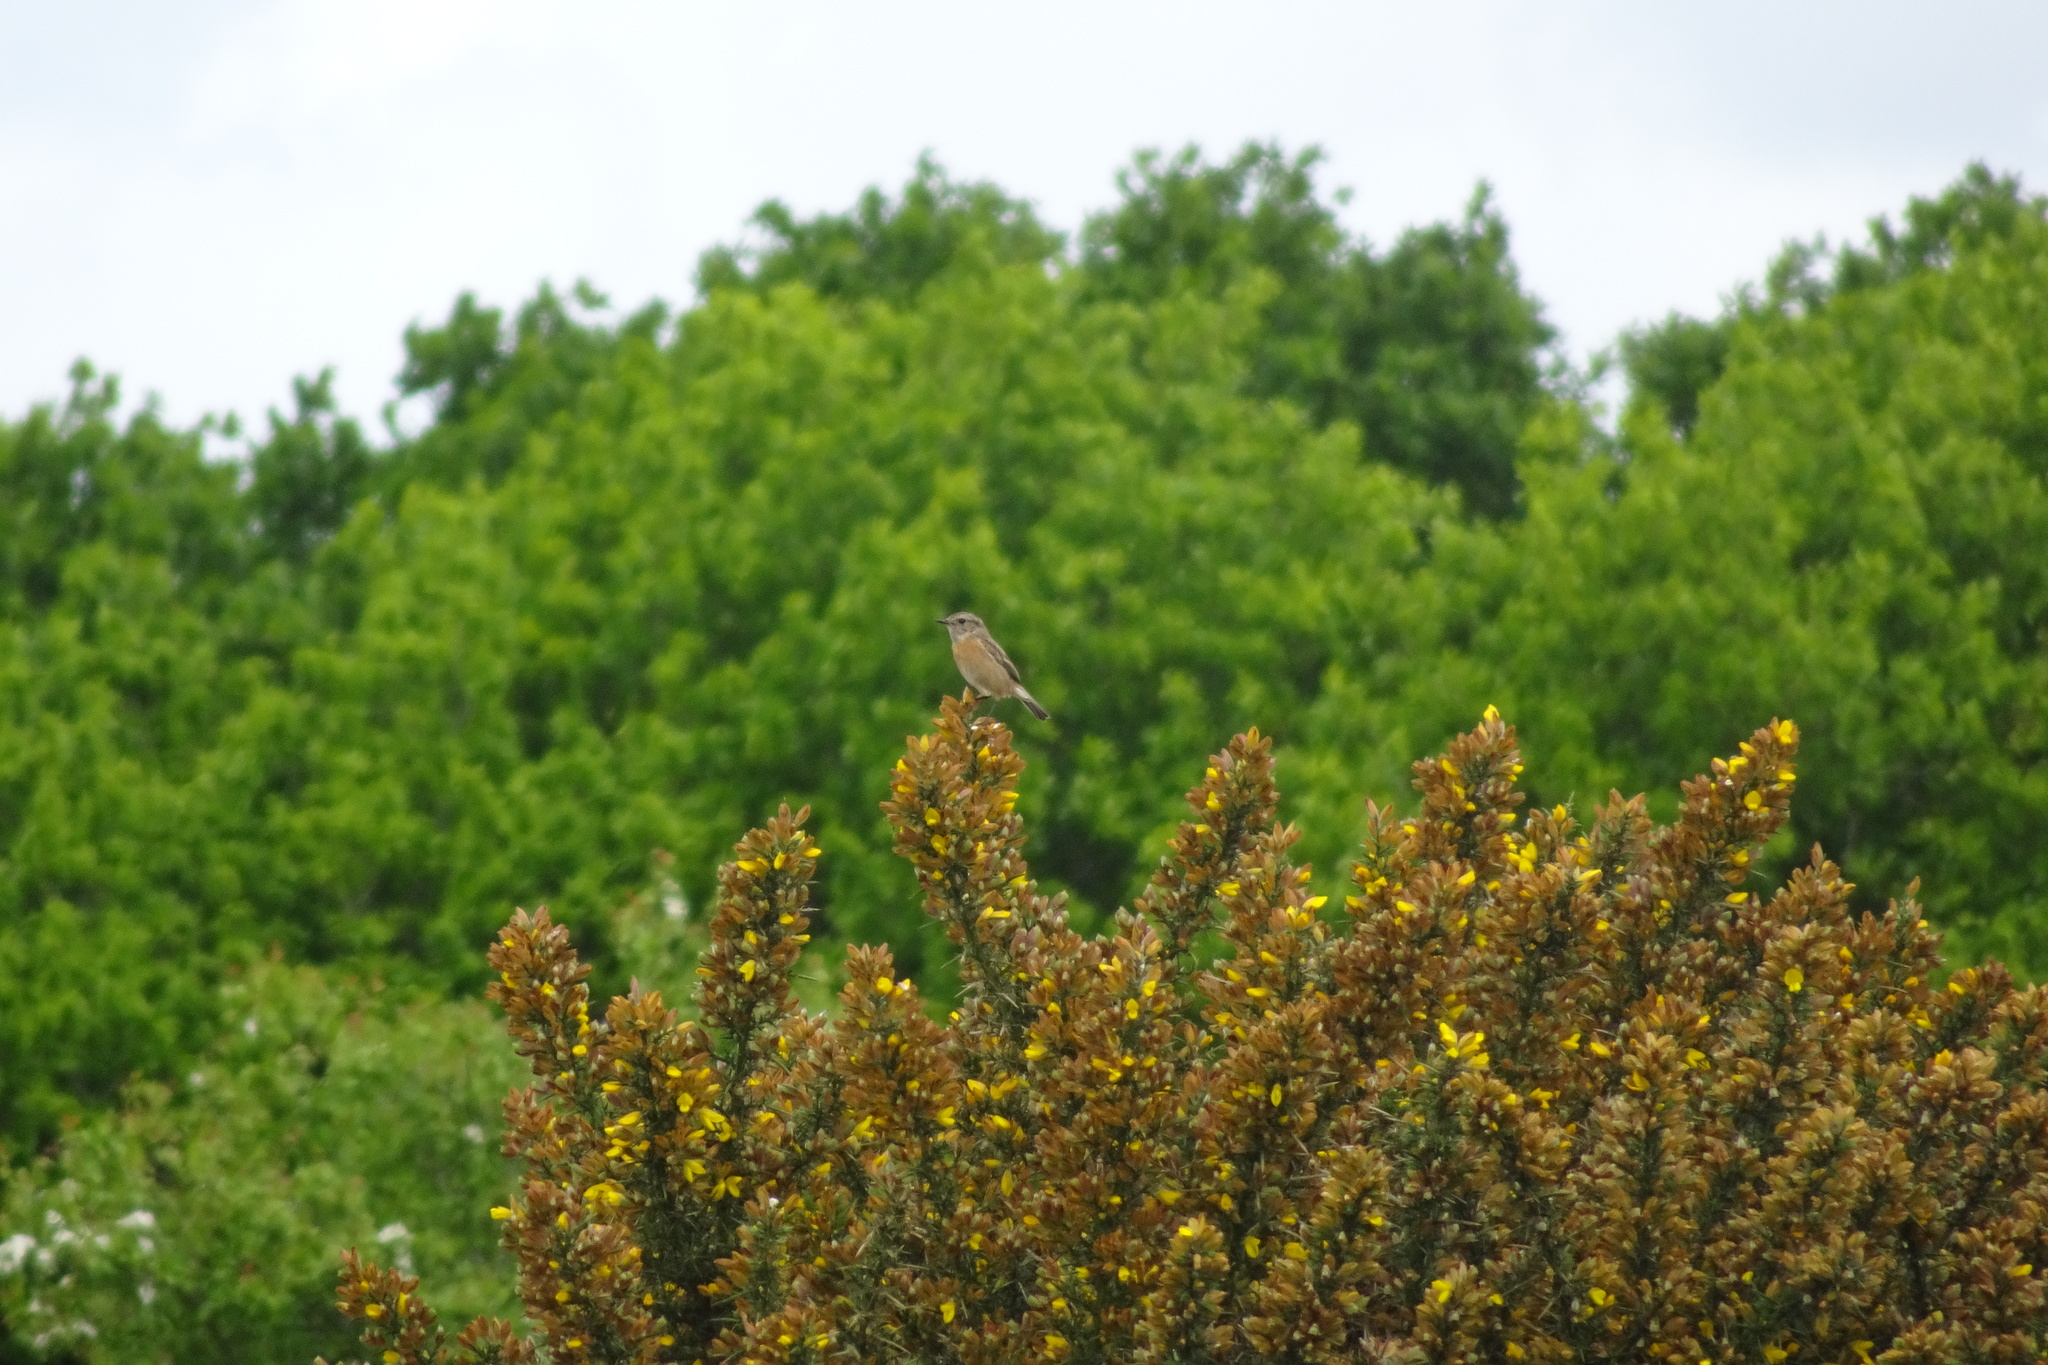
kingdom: Animalia
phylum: Chordata
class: Aves
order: Passeriformes
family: Muscicapidae
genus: Saxicola
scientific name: Saxicola rubicola
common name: European stonechat
